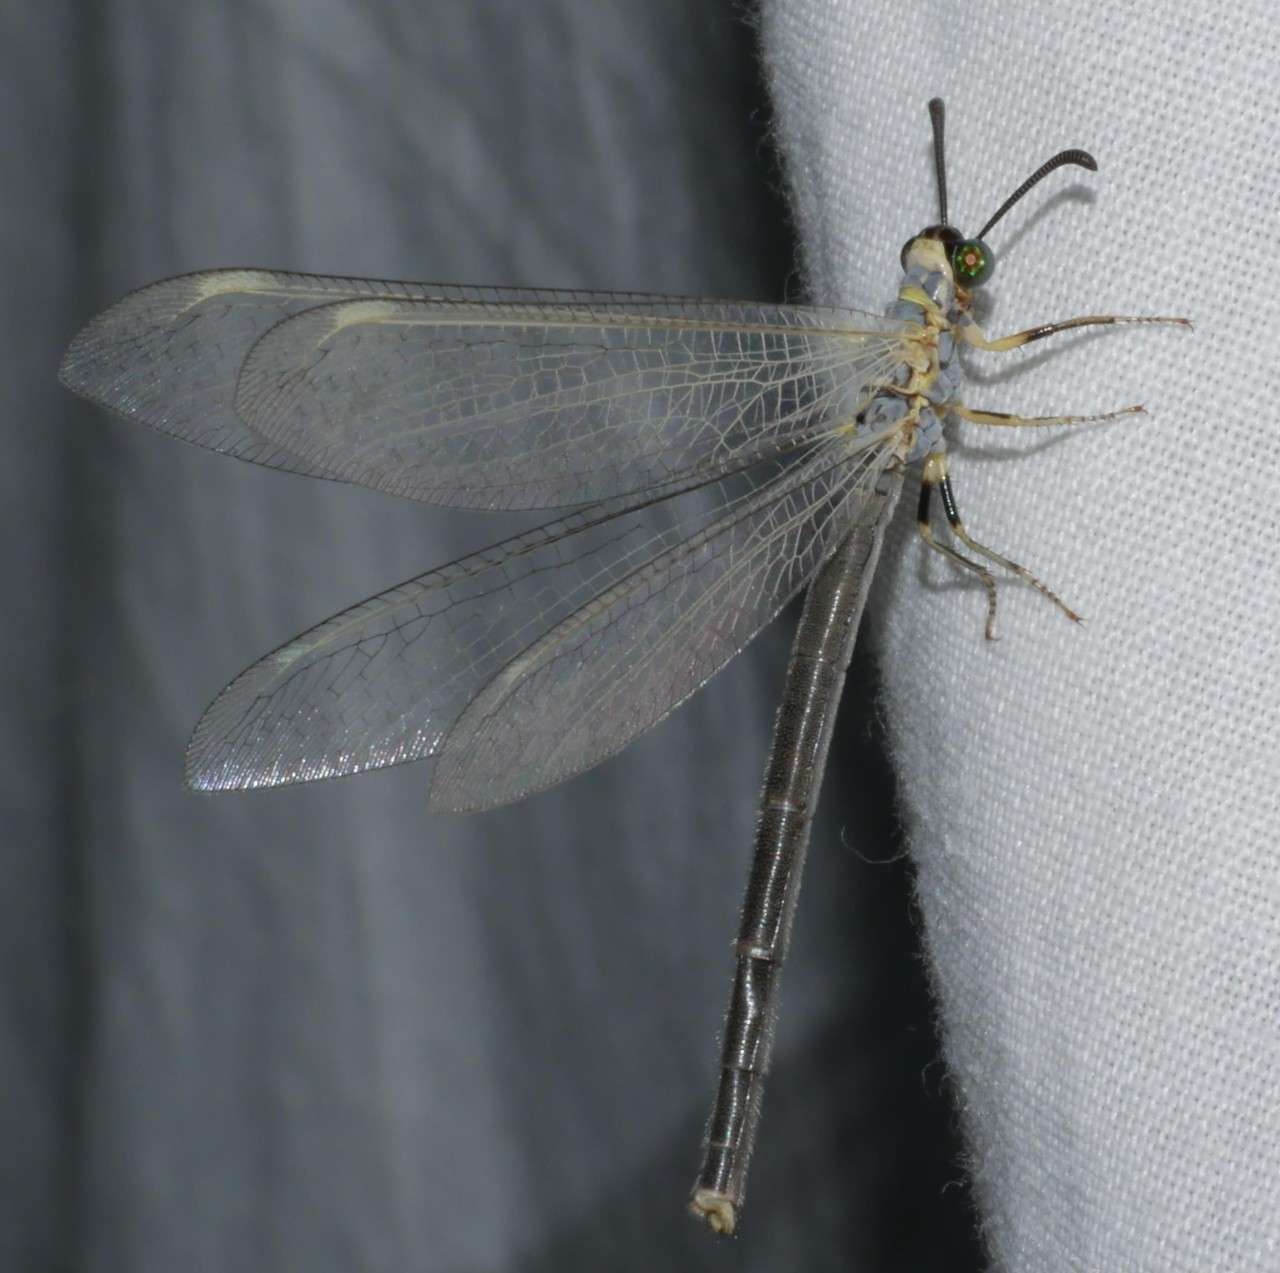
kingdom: Animalia
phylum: Arthropoda
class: Insecta
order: Neuroptera
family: Myrmeleontidae
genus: Myrmeleon
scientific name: Myrmeleon acer
